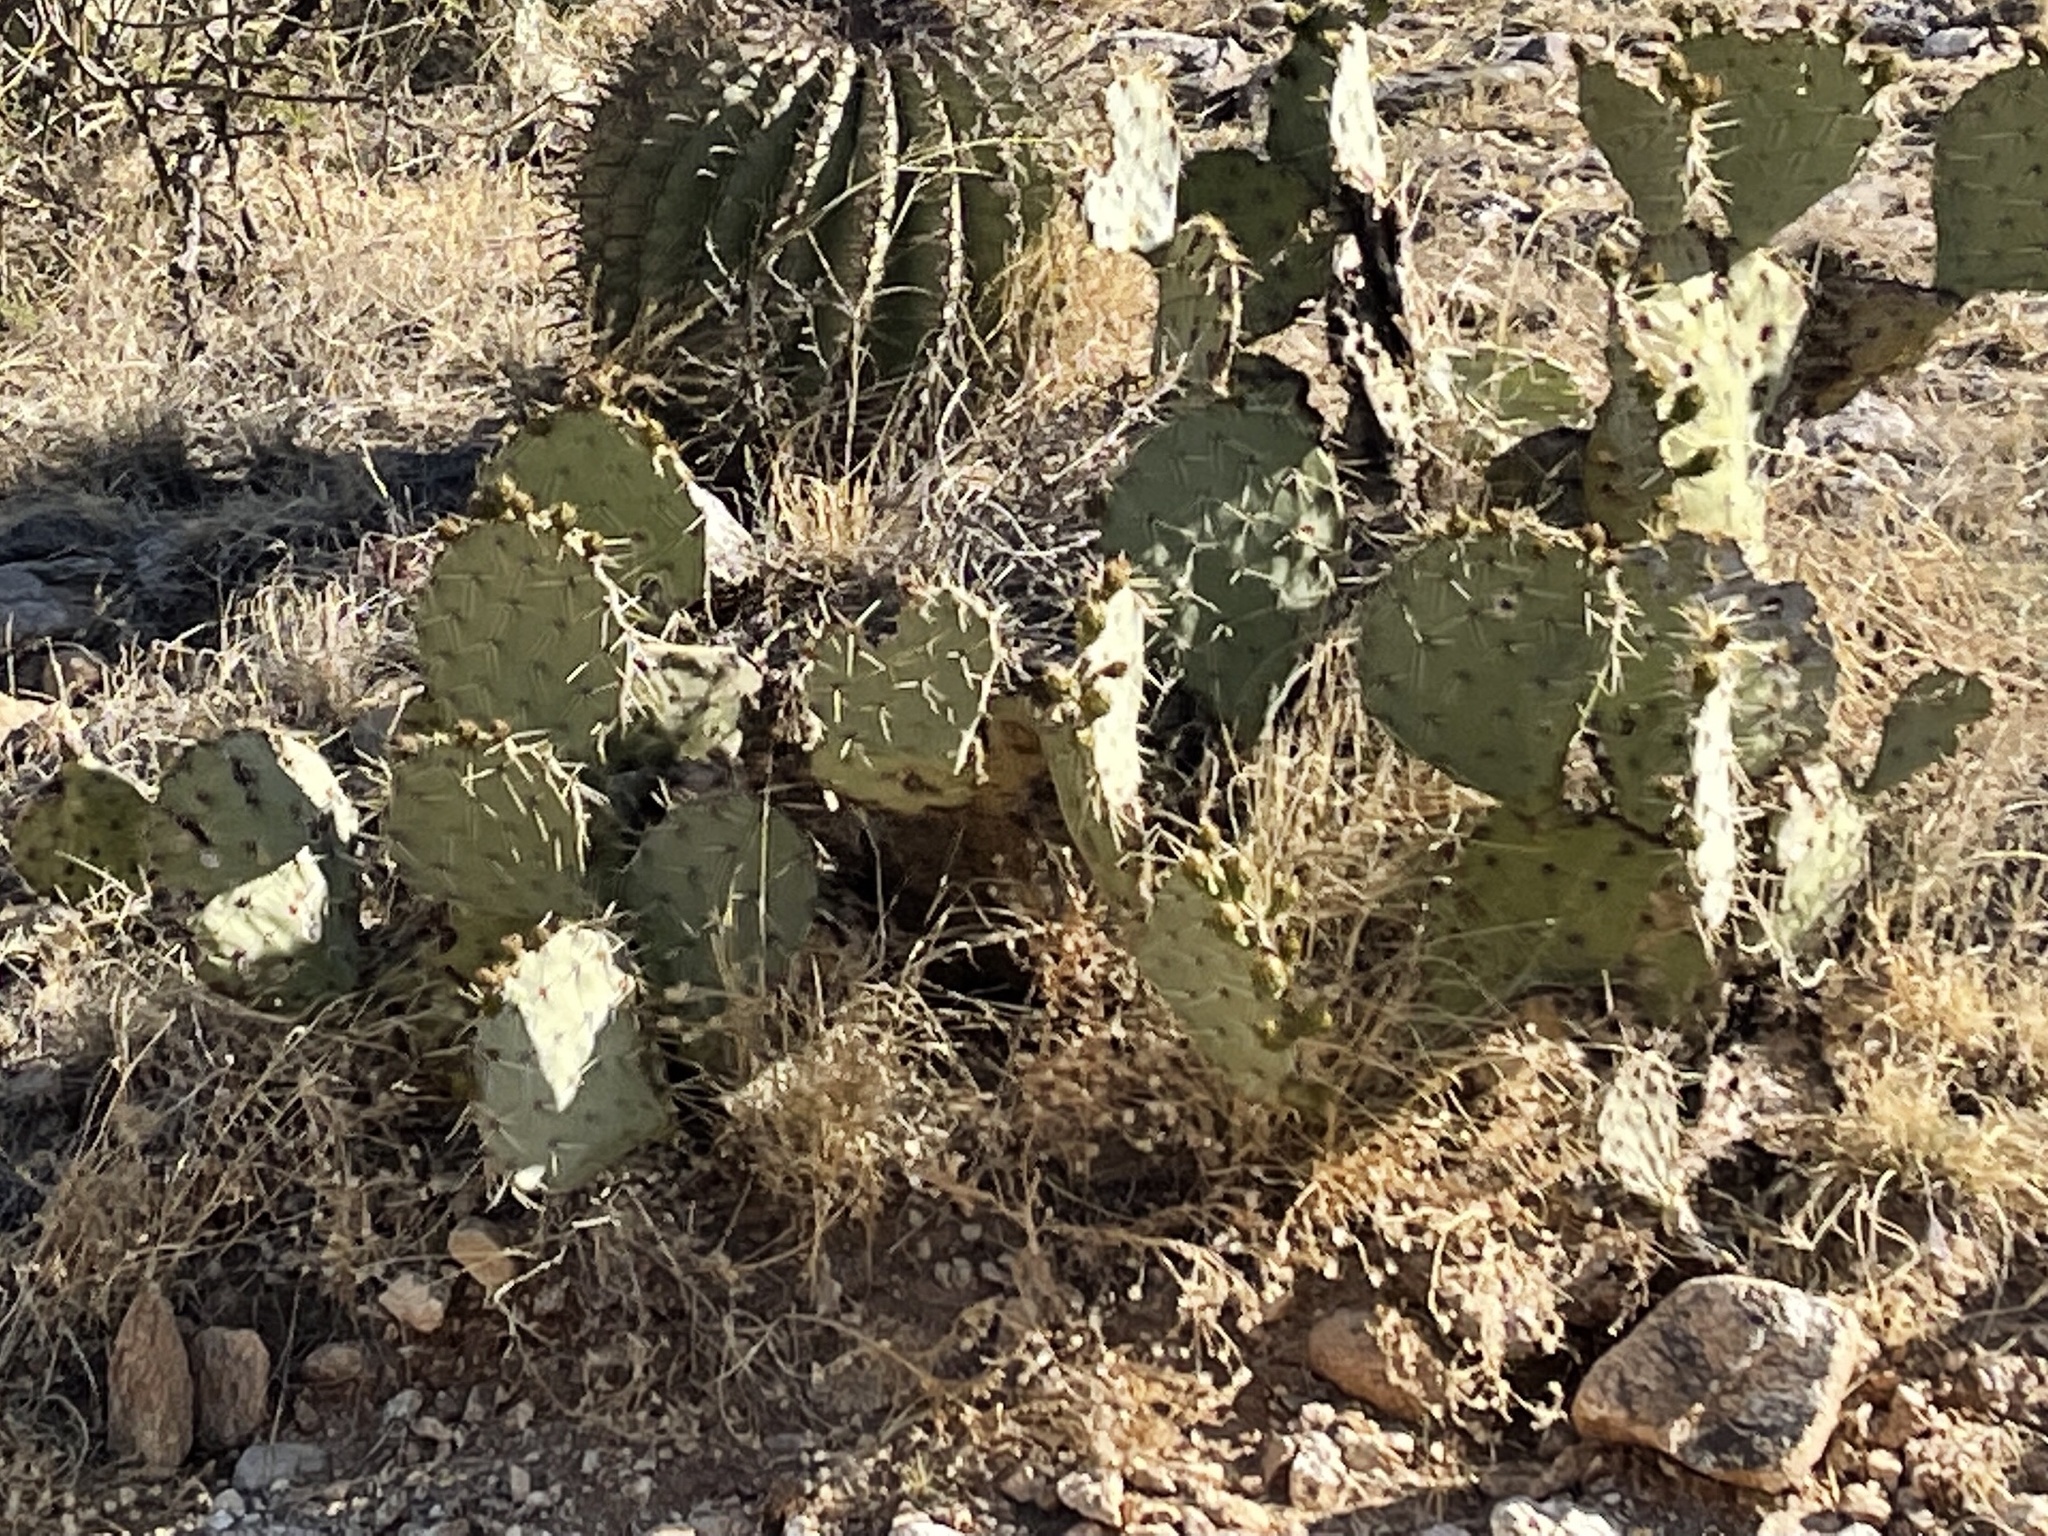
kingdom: Plantae
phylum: Tracheophyta
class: Magnoliopsida
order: Caryophyllales
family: Cactaceae
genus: Opuntia
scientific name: Opuntia engelmannii
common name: Cactus-apple
